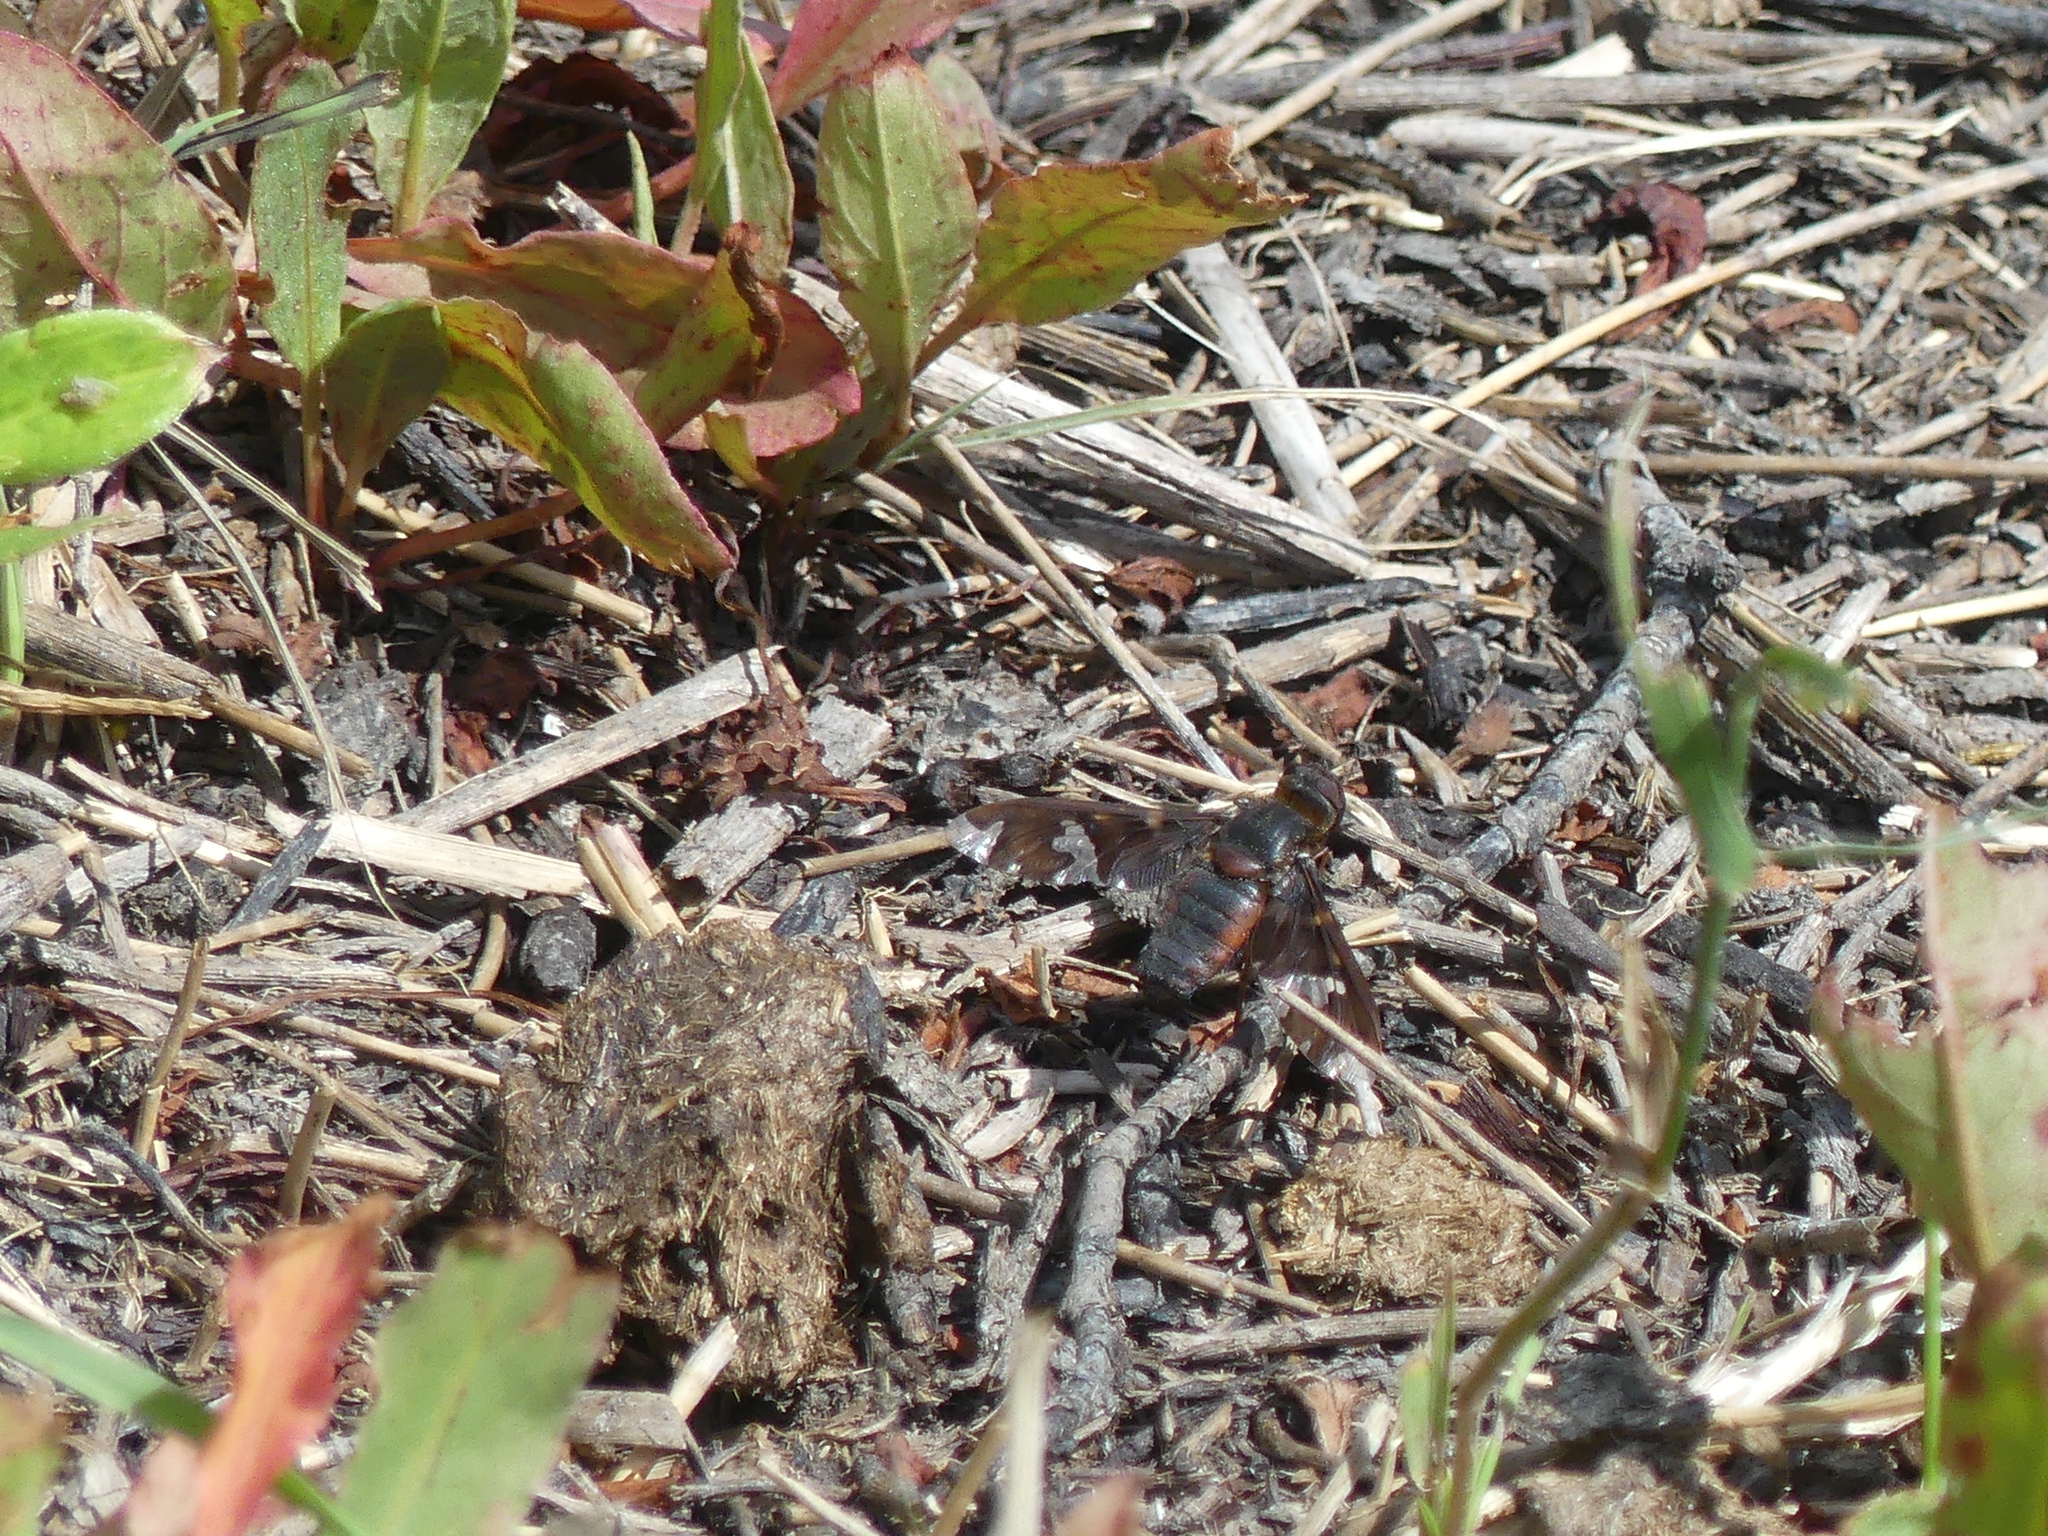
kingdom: Animalia
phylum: Arthropoda
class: Insecta
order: Diptera
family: Bombyliidae
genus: Exoprosopa
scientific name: Exoprosopa decora
